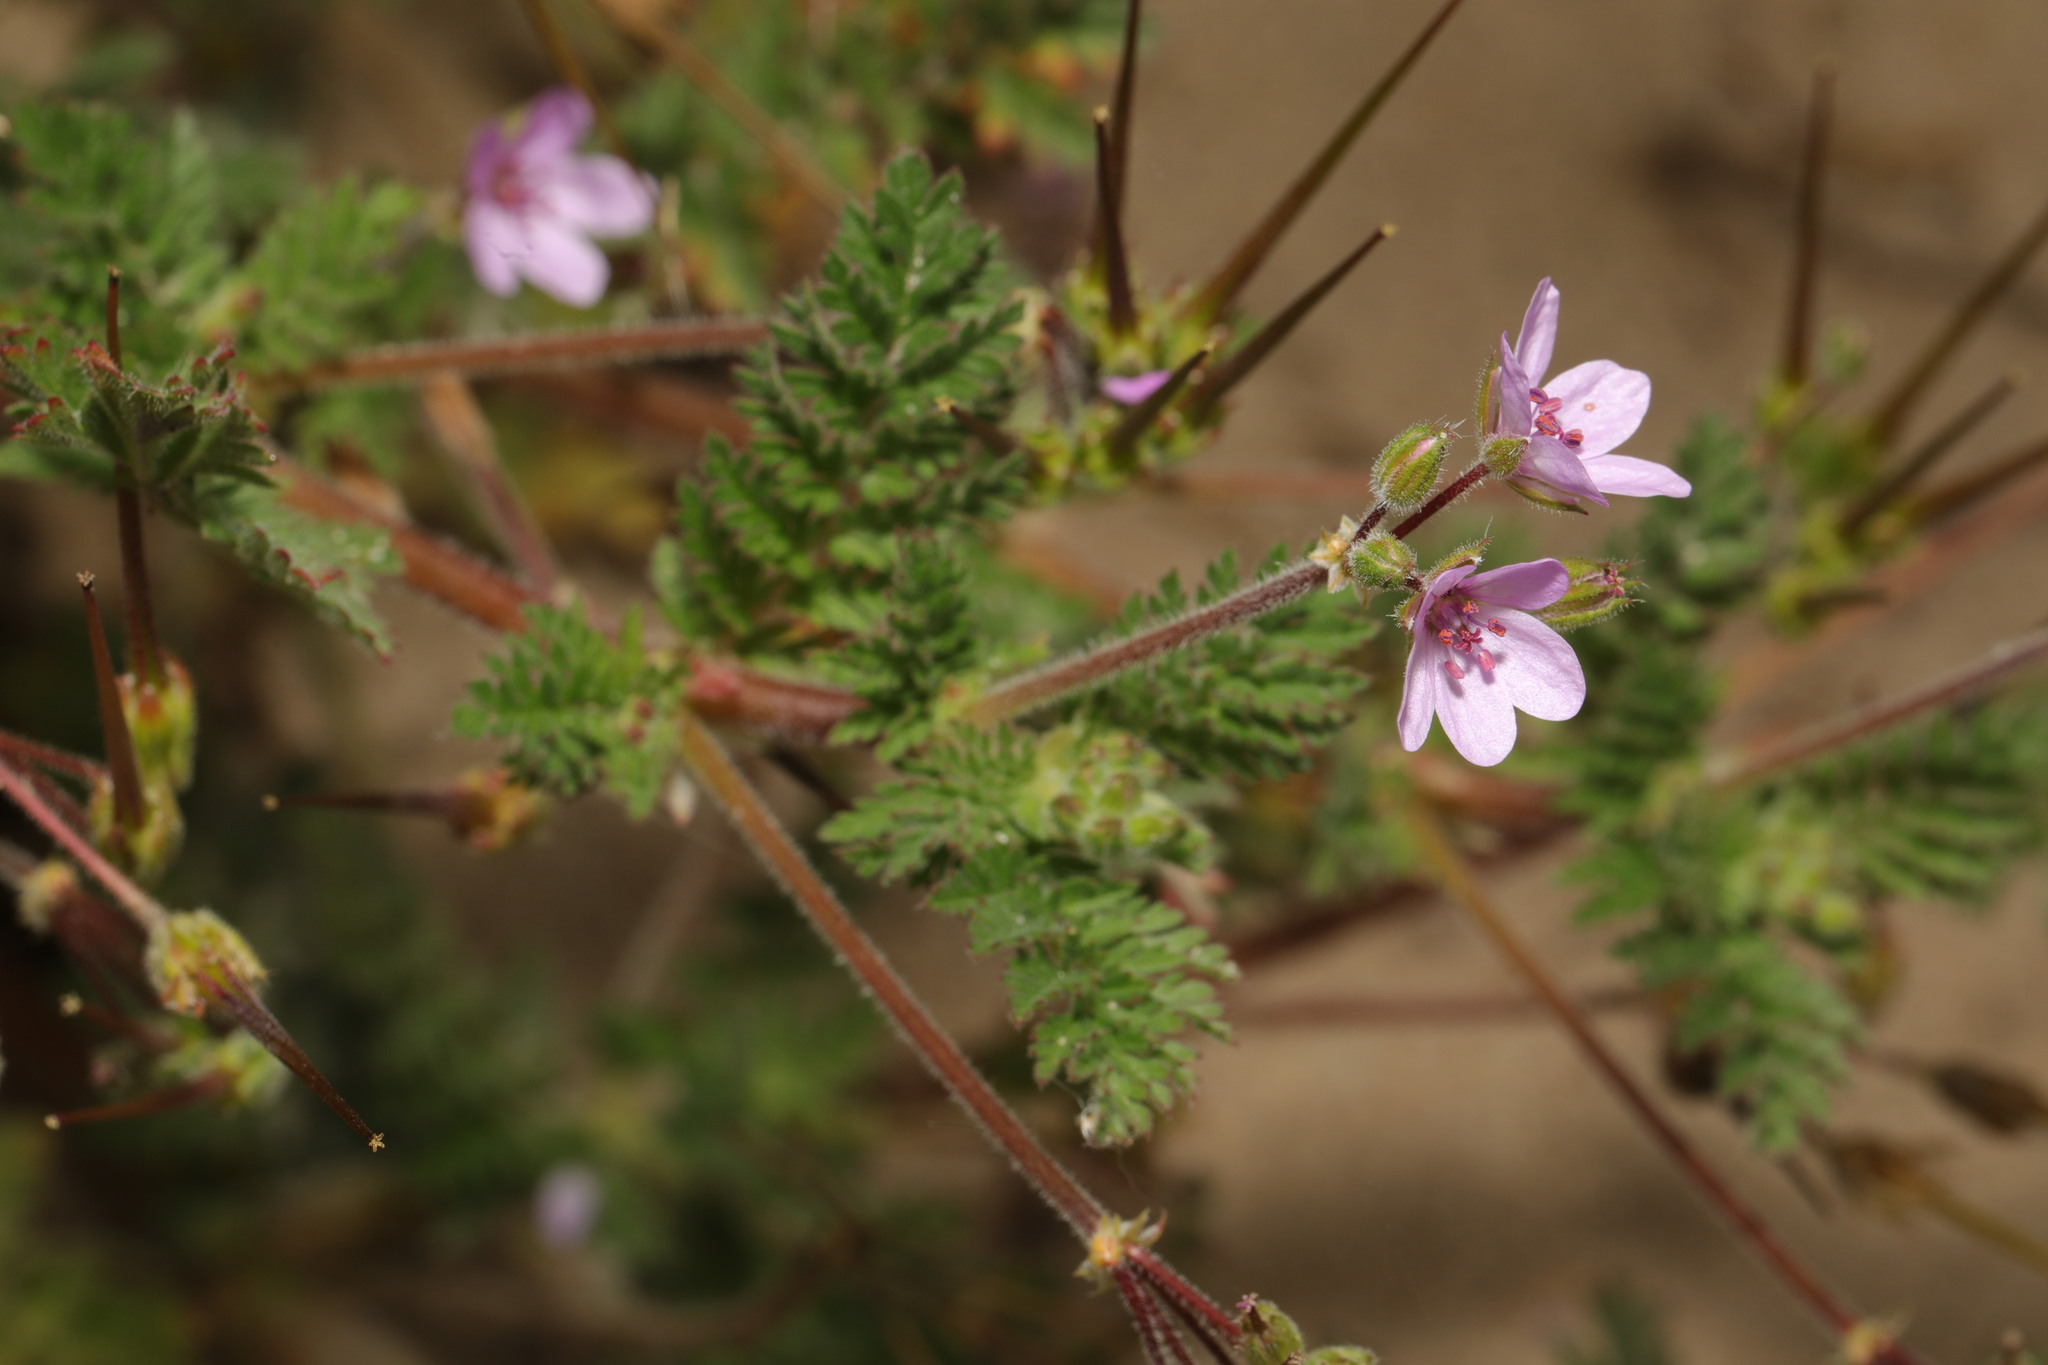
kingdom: Plantae
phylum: Tracheophyta
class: Magnoliopsida
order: Geraniales
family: Geraniaceae
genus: Erodium
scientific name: Erodium cicutarium
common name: Common stork's-bill
